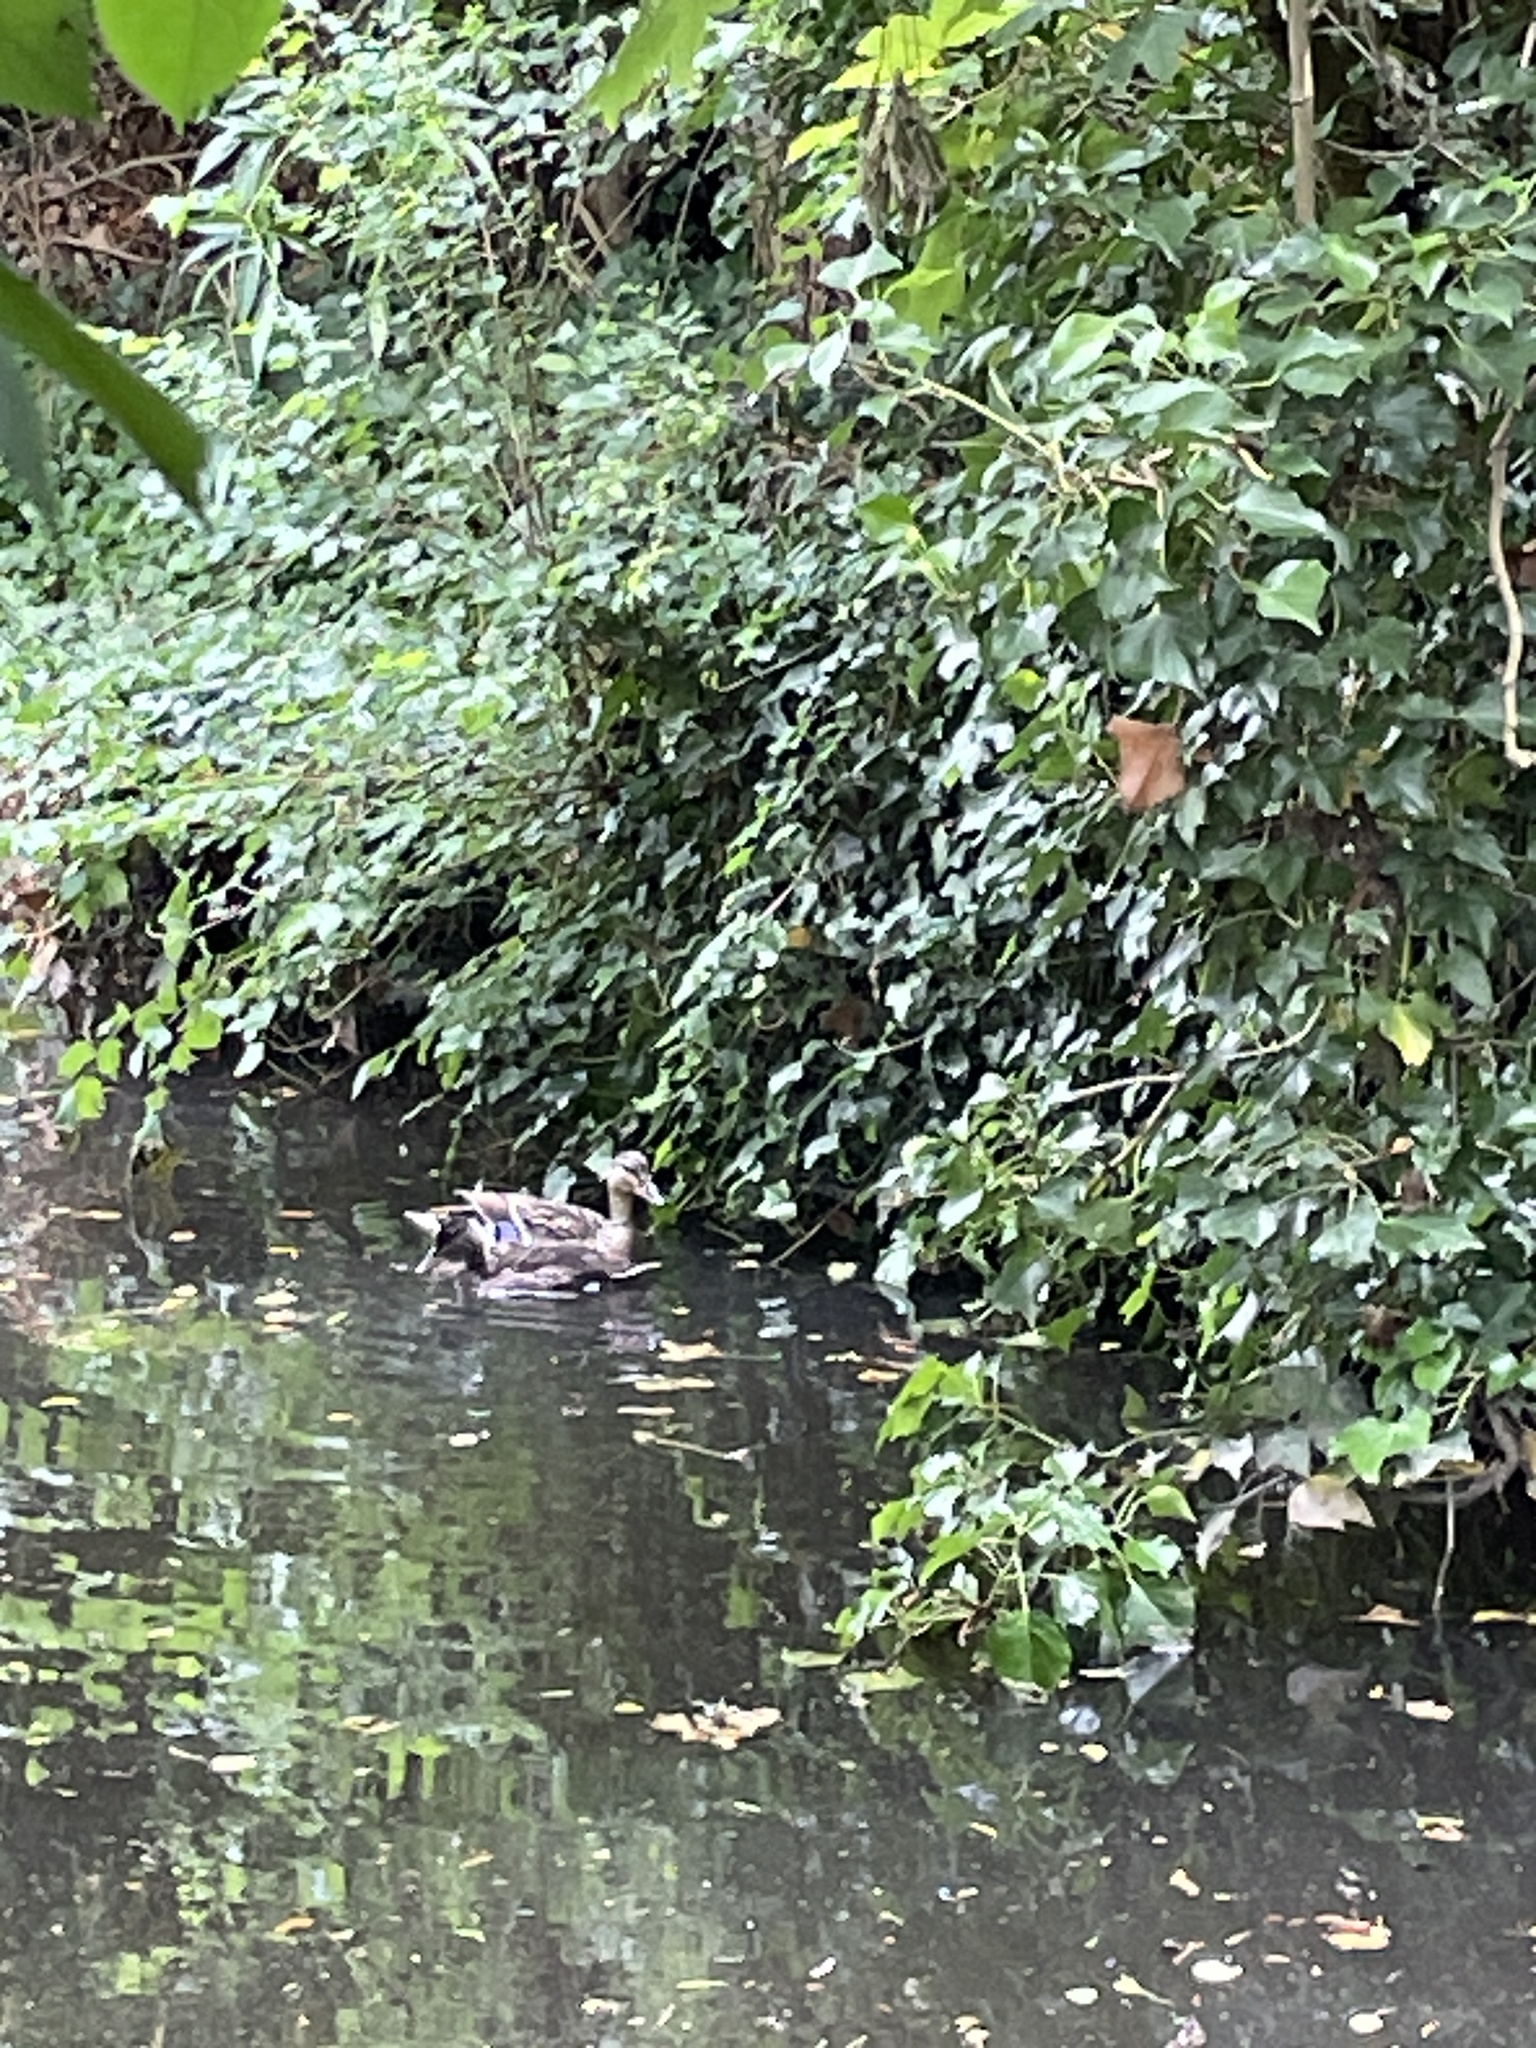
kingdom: Animalia
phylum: Chordata
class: Aves
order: Anseriformes
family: Anatidae
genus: Anas
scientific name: Anas platyrhynchos
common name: Mallard
